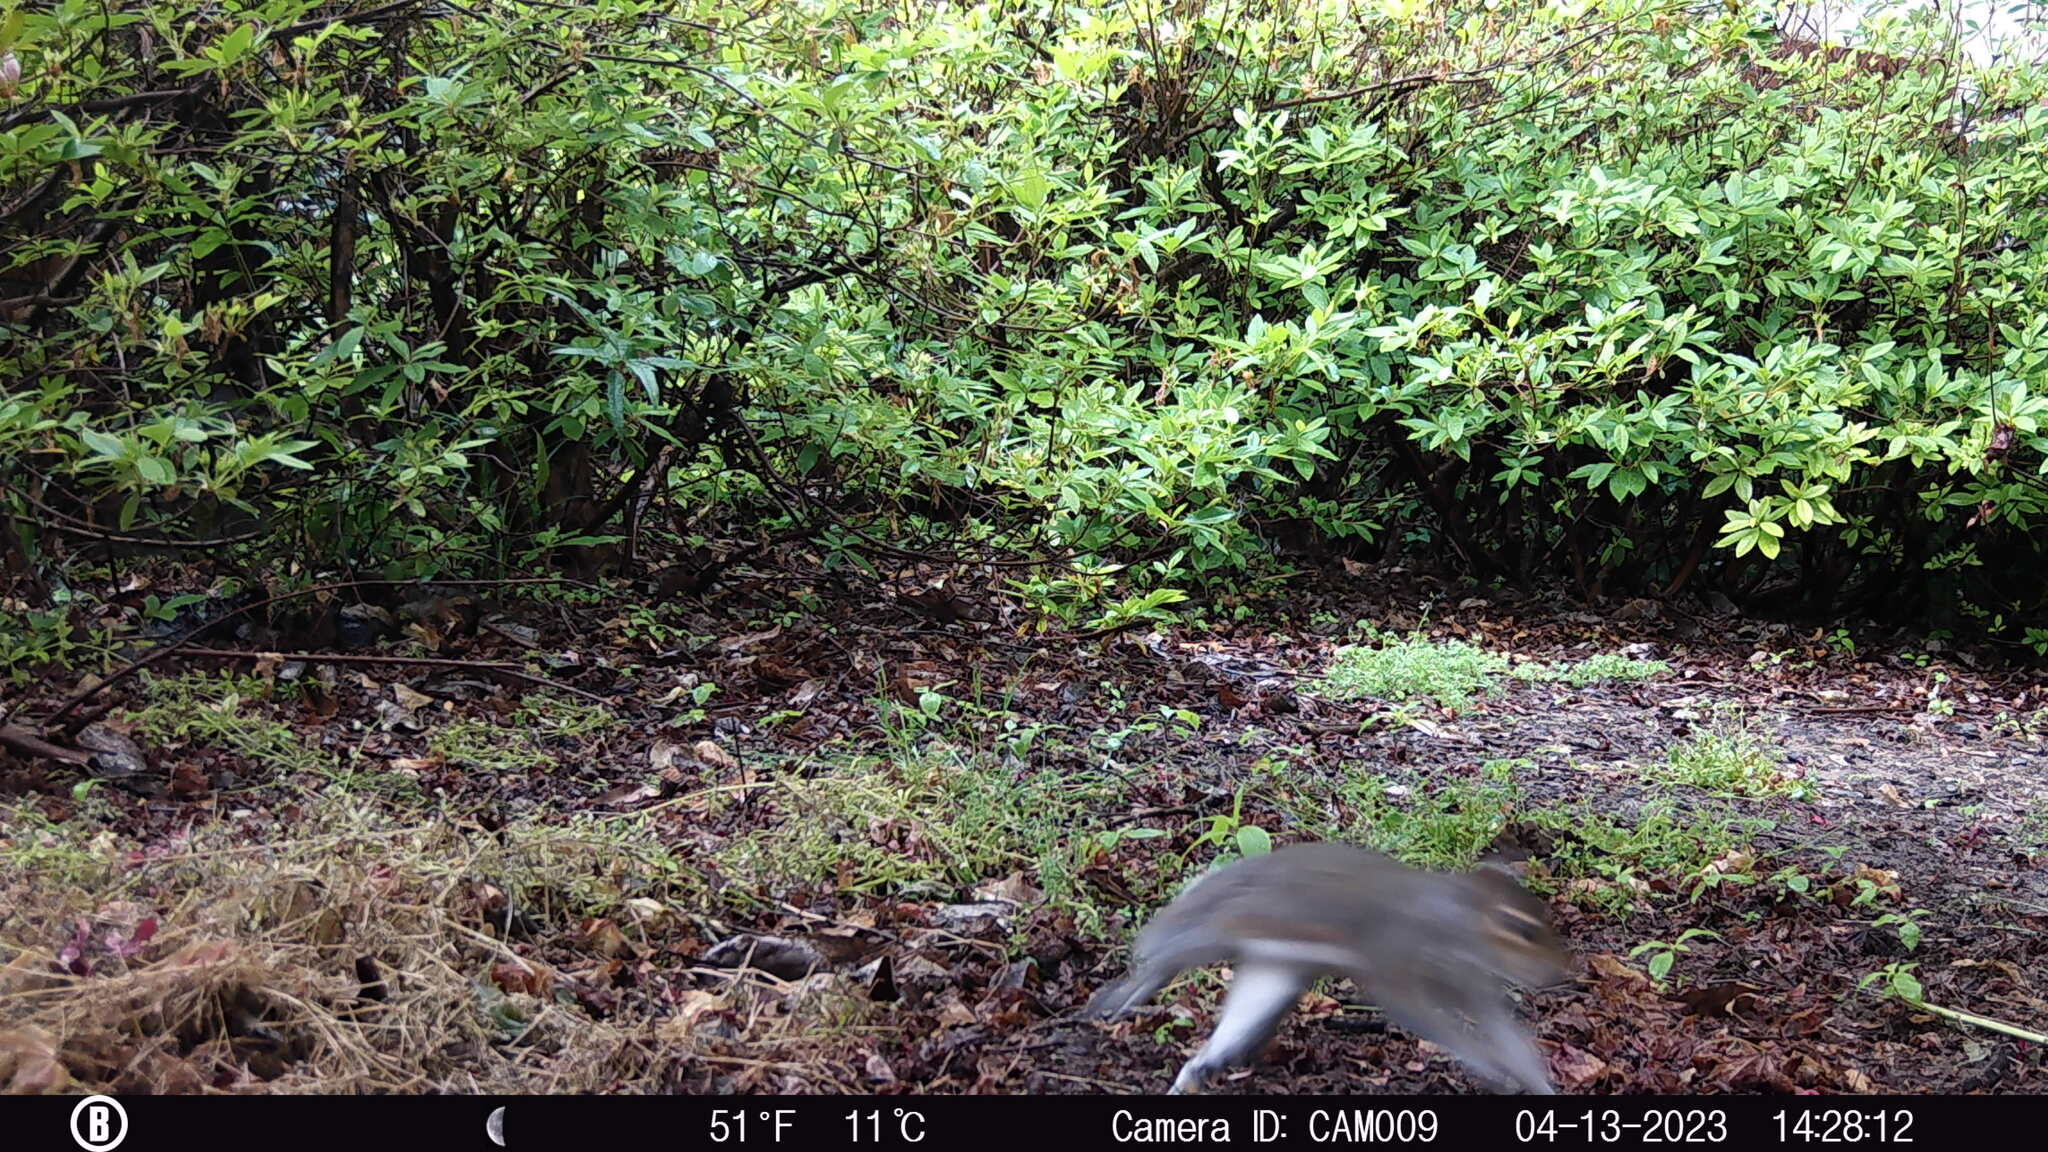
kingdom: Animalia
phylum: Chordata
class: Mammalia
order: Rodentia
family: Sciuridae
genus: Sciurus
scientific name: Sciurus carolinensis
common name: Eastern gray squirrel
